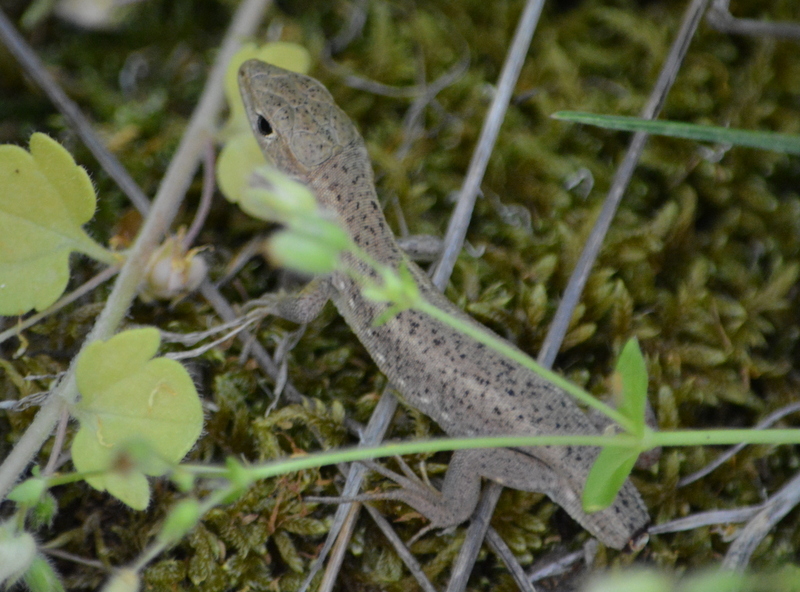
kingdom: Animalia
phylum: Chordata
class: Squamata
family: Lacertidae
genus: Lacerta
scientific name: Lacerta viridis
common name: European green lizard
